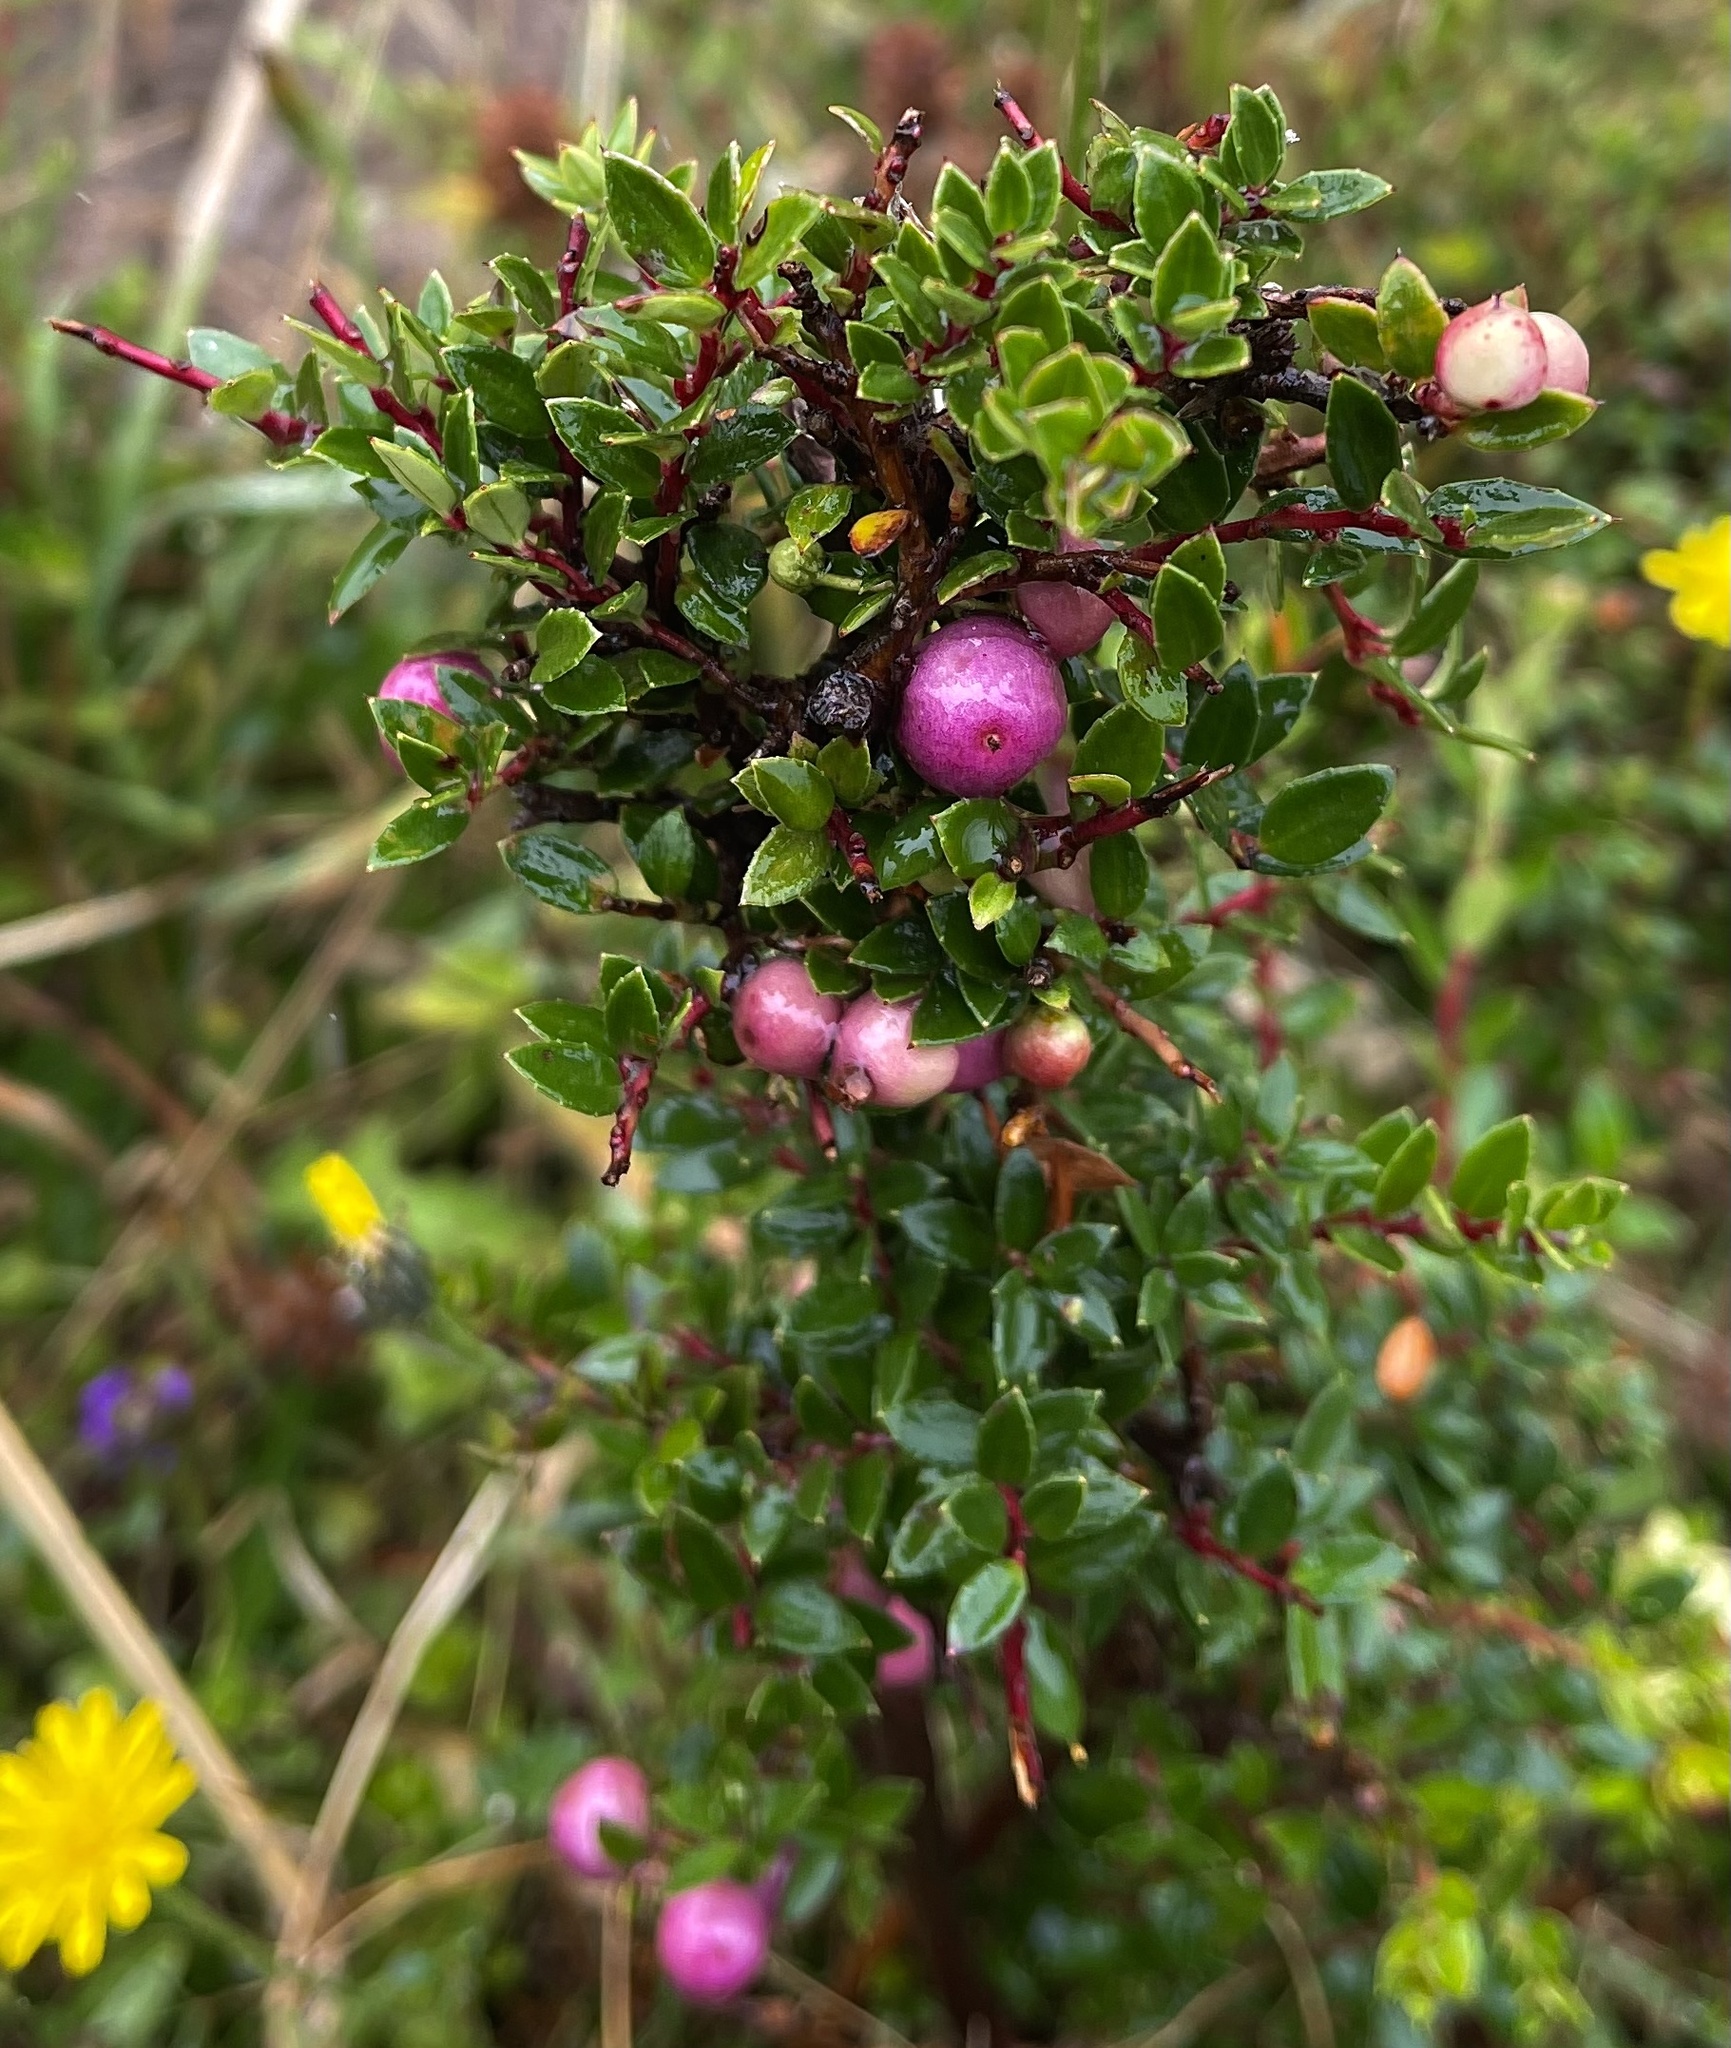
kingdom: Plantae
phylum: Tracheophyta
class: Magnoliopsida
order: Ericales
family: Ericaceae
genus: Gaultheria
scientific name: Gaultheria mucronata
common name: Prickly heath
